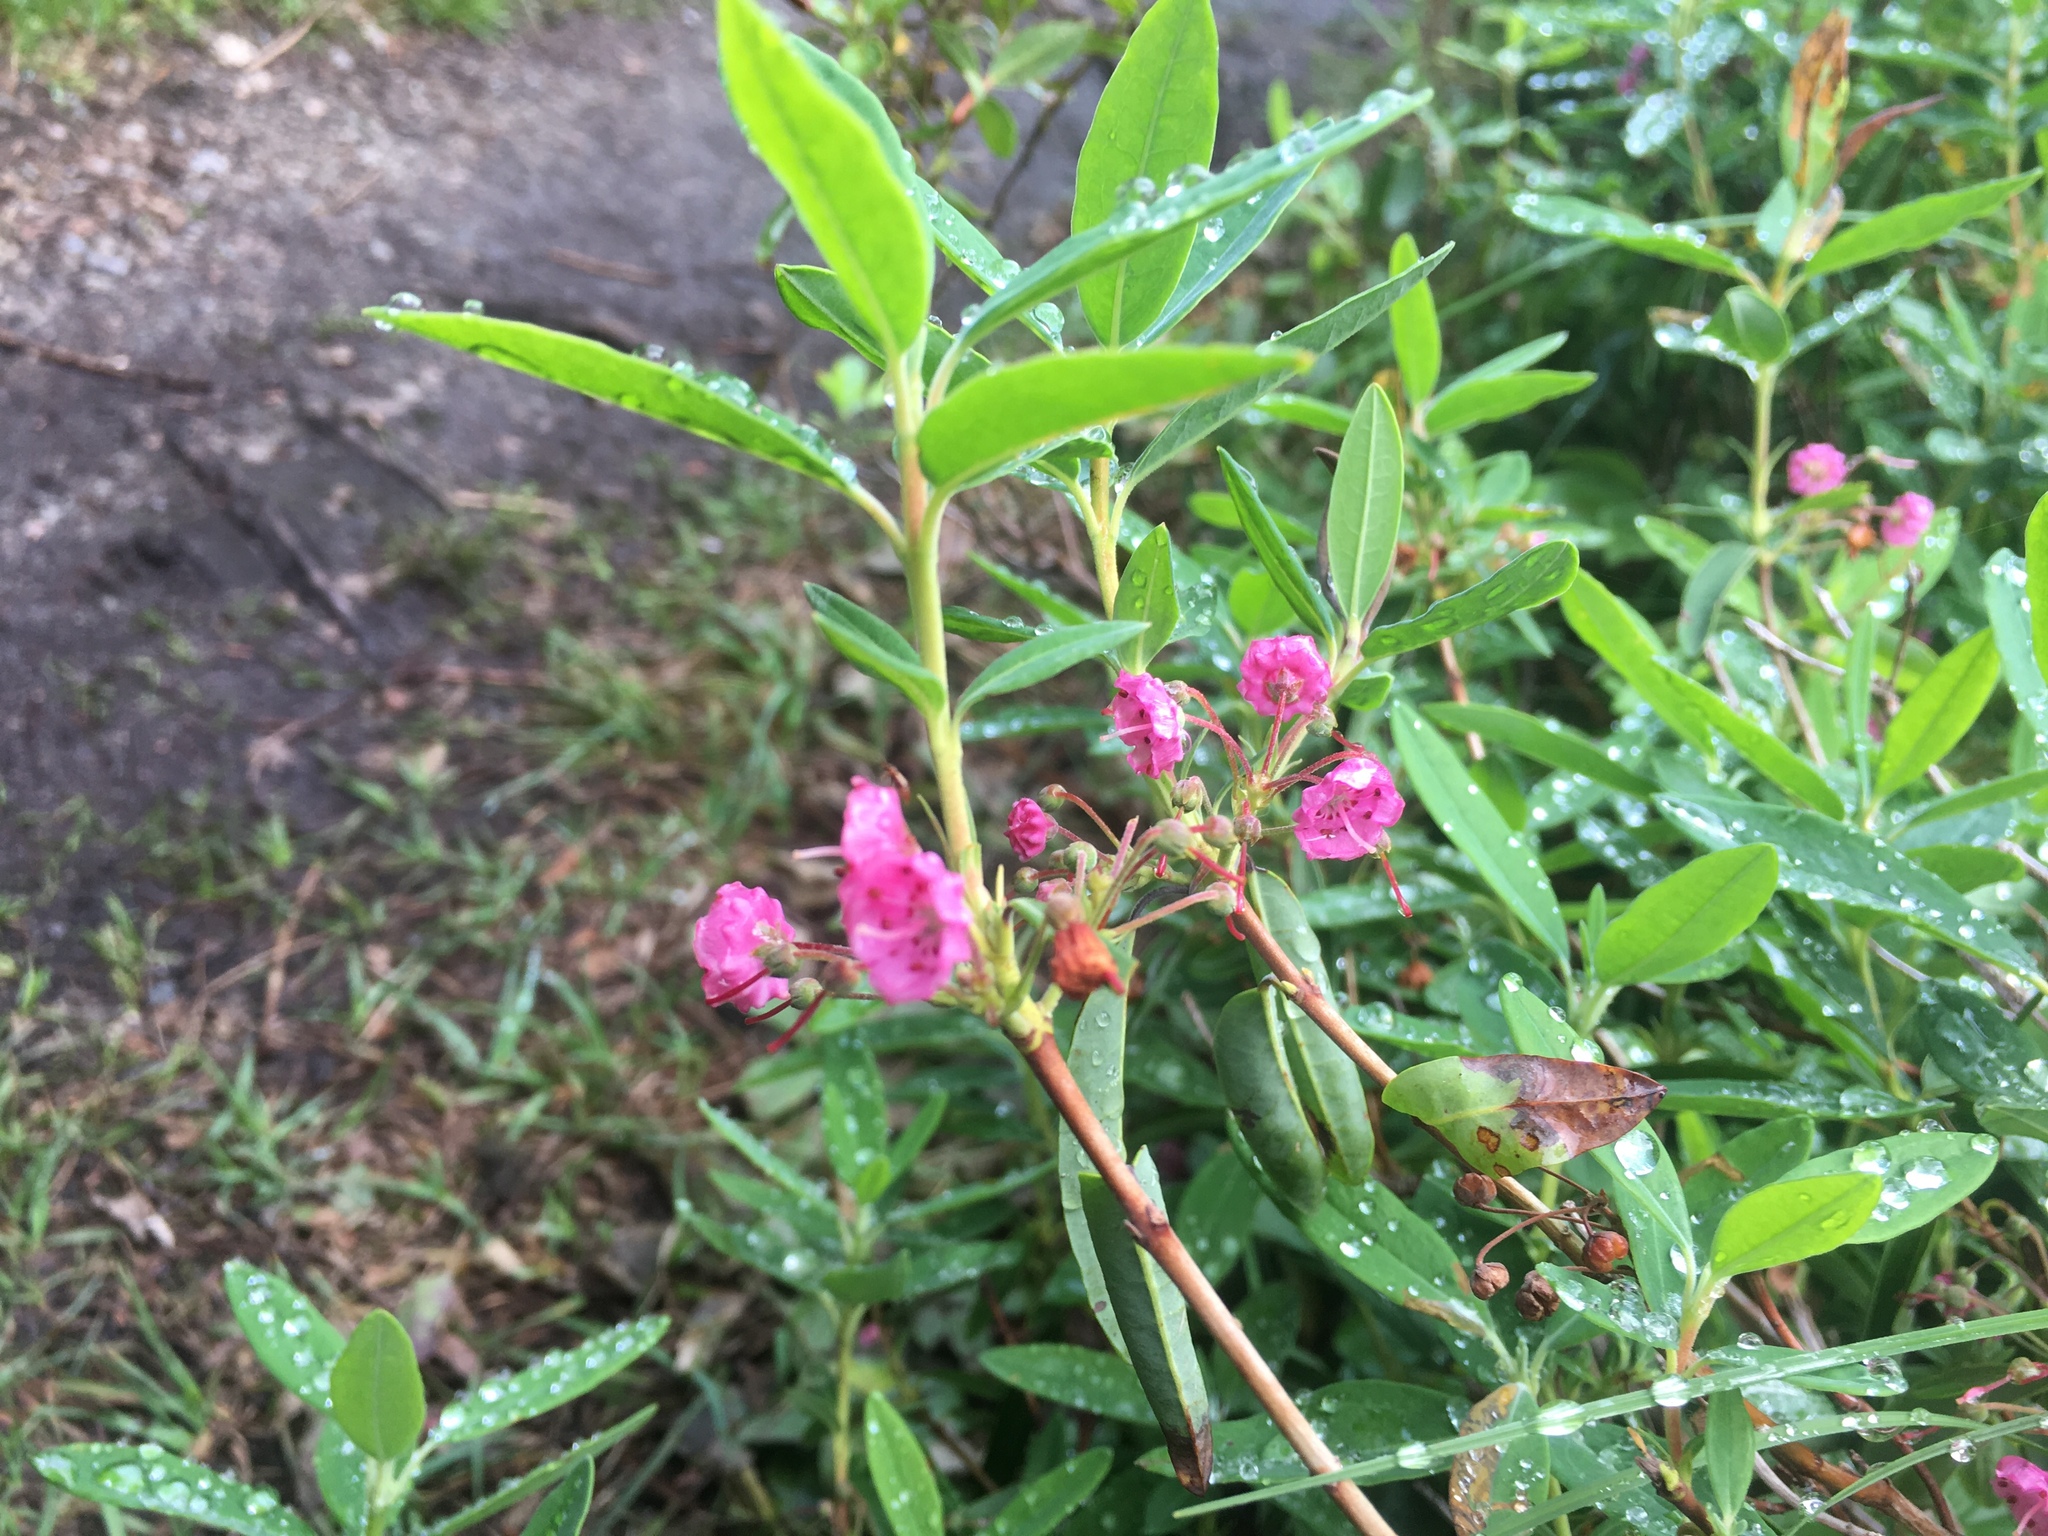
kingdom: Plantae
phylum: Tracheophyta
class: Magnoliopsida
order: Ericales
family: Ericaceae
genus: Kalmia
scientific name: Kalmia angustifolia
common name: Sheep-laurel
